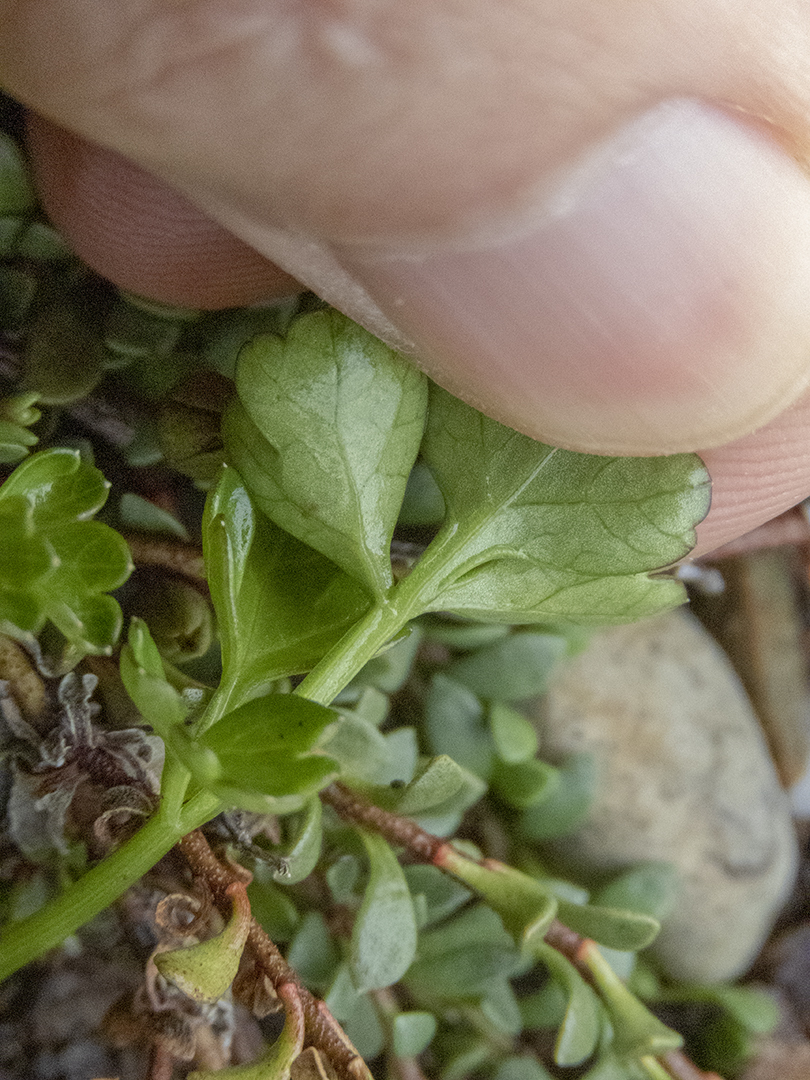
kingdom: Plantae
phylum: Tracheophyta
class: Magnoliopsida
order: Apiales
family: Apiaceae
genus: Apium
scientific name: Apium prostratum
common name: Prostrate marshwort
